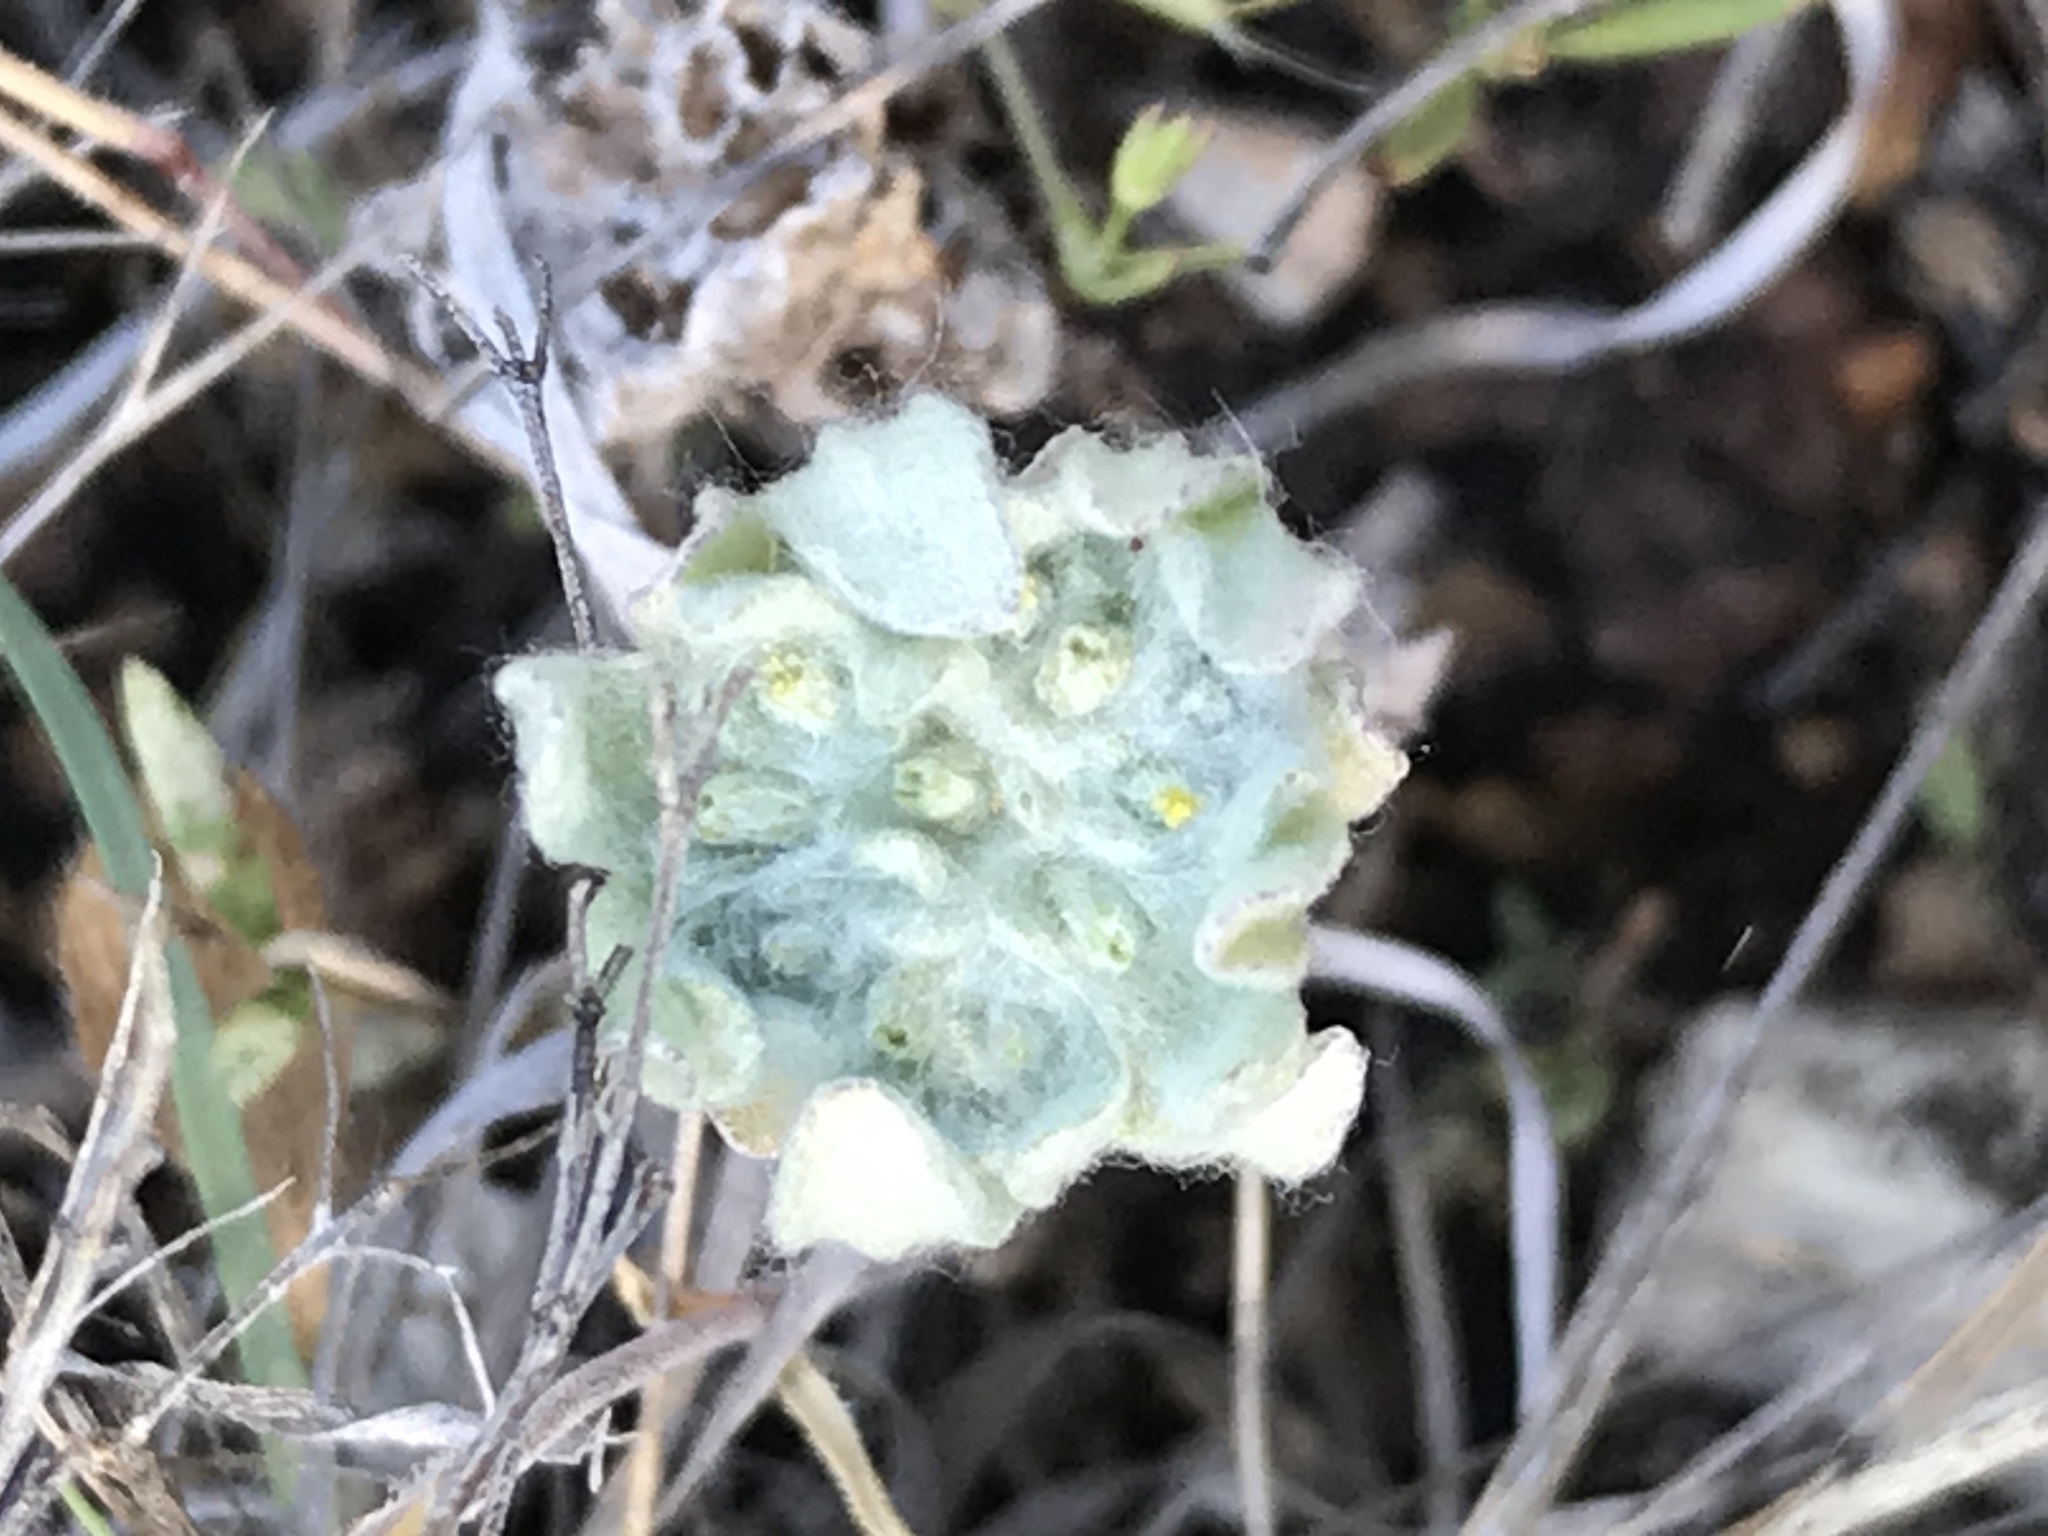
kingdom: Plantae
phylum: Tracheophyta
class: Magnoliopsida
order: Asterales
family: Asteraceae
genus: Diaperia
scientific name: Diaperia prolifera
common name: Big-head rabbit-tobacco
